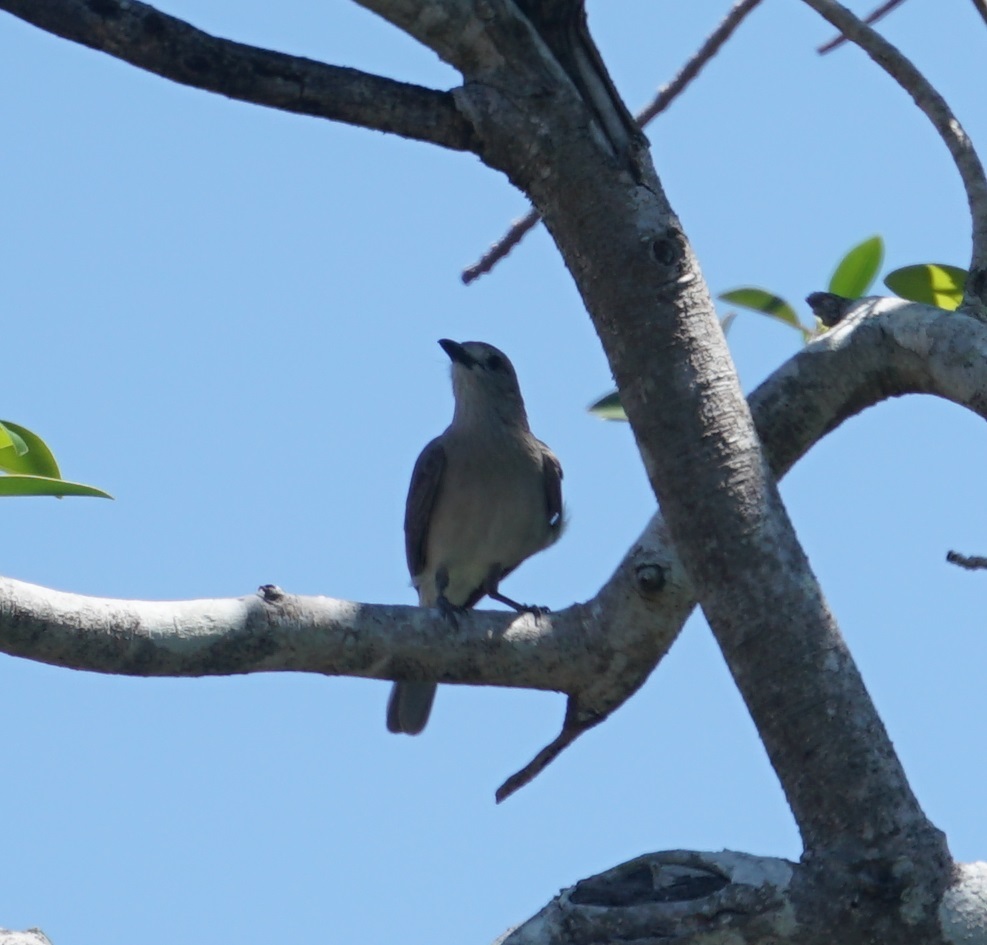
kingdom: Animalia
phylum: Chordata
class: Aves
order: Passeriformes
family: Pachycephalidae
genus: Colluricincla
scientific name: Colluricincla harmonica
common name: Grey shrikethrush
